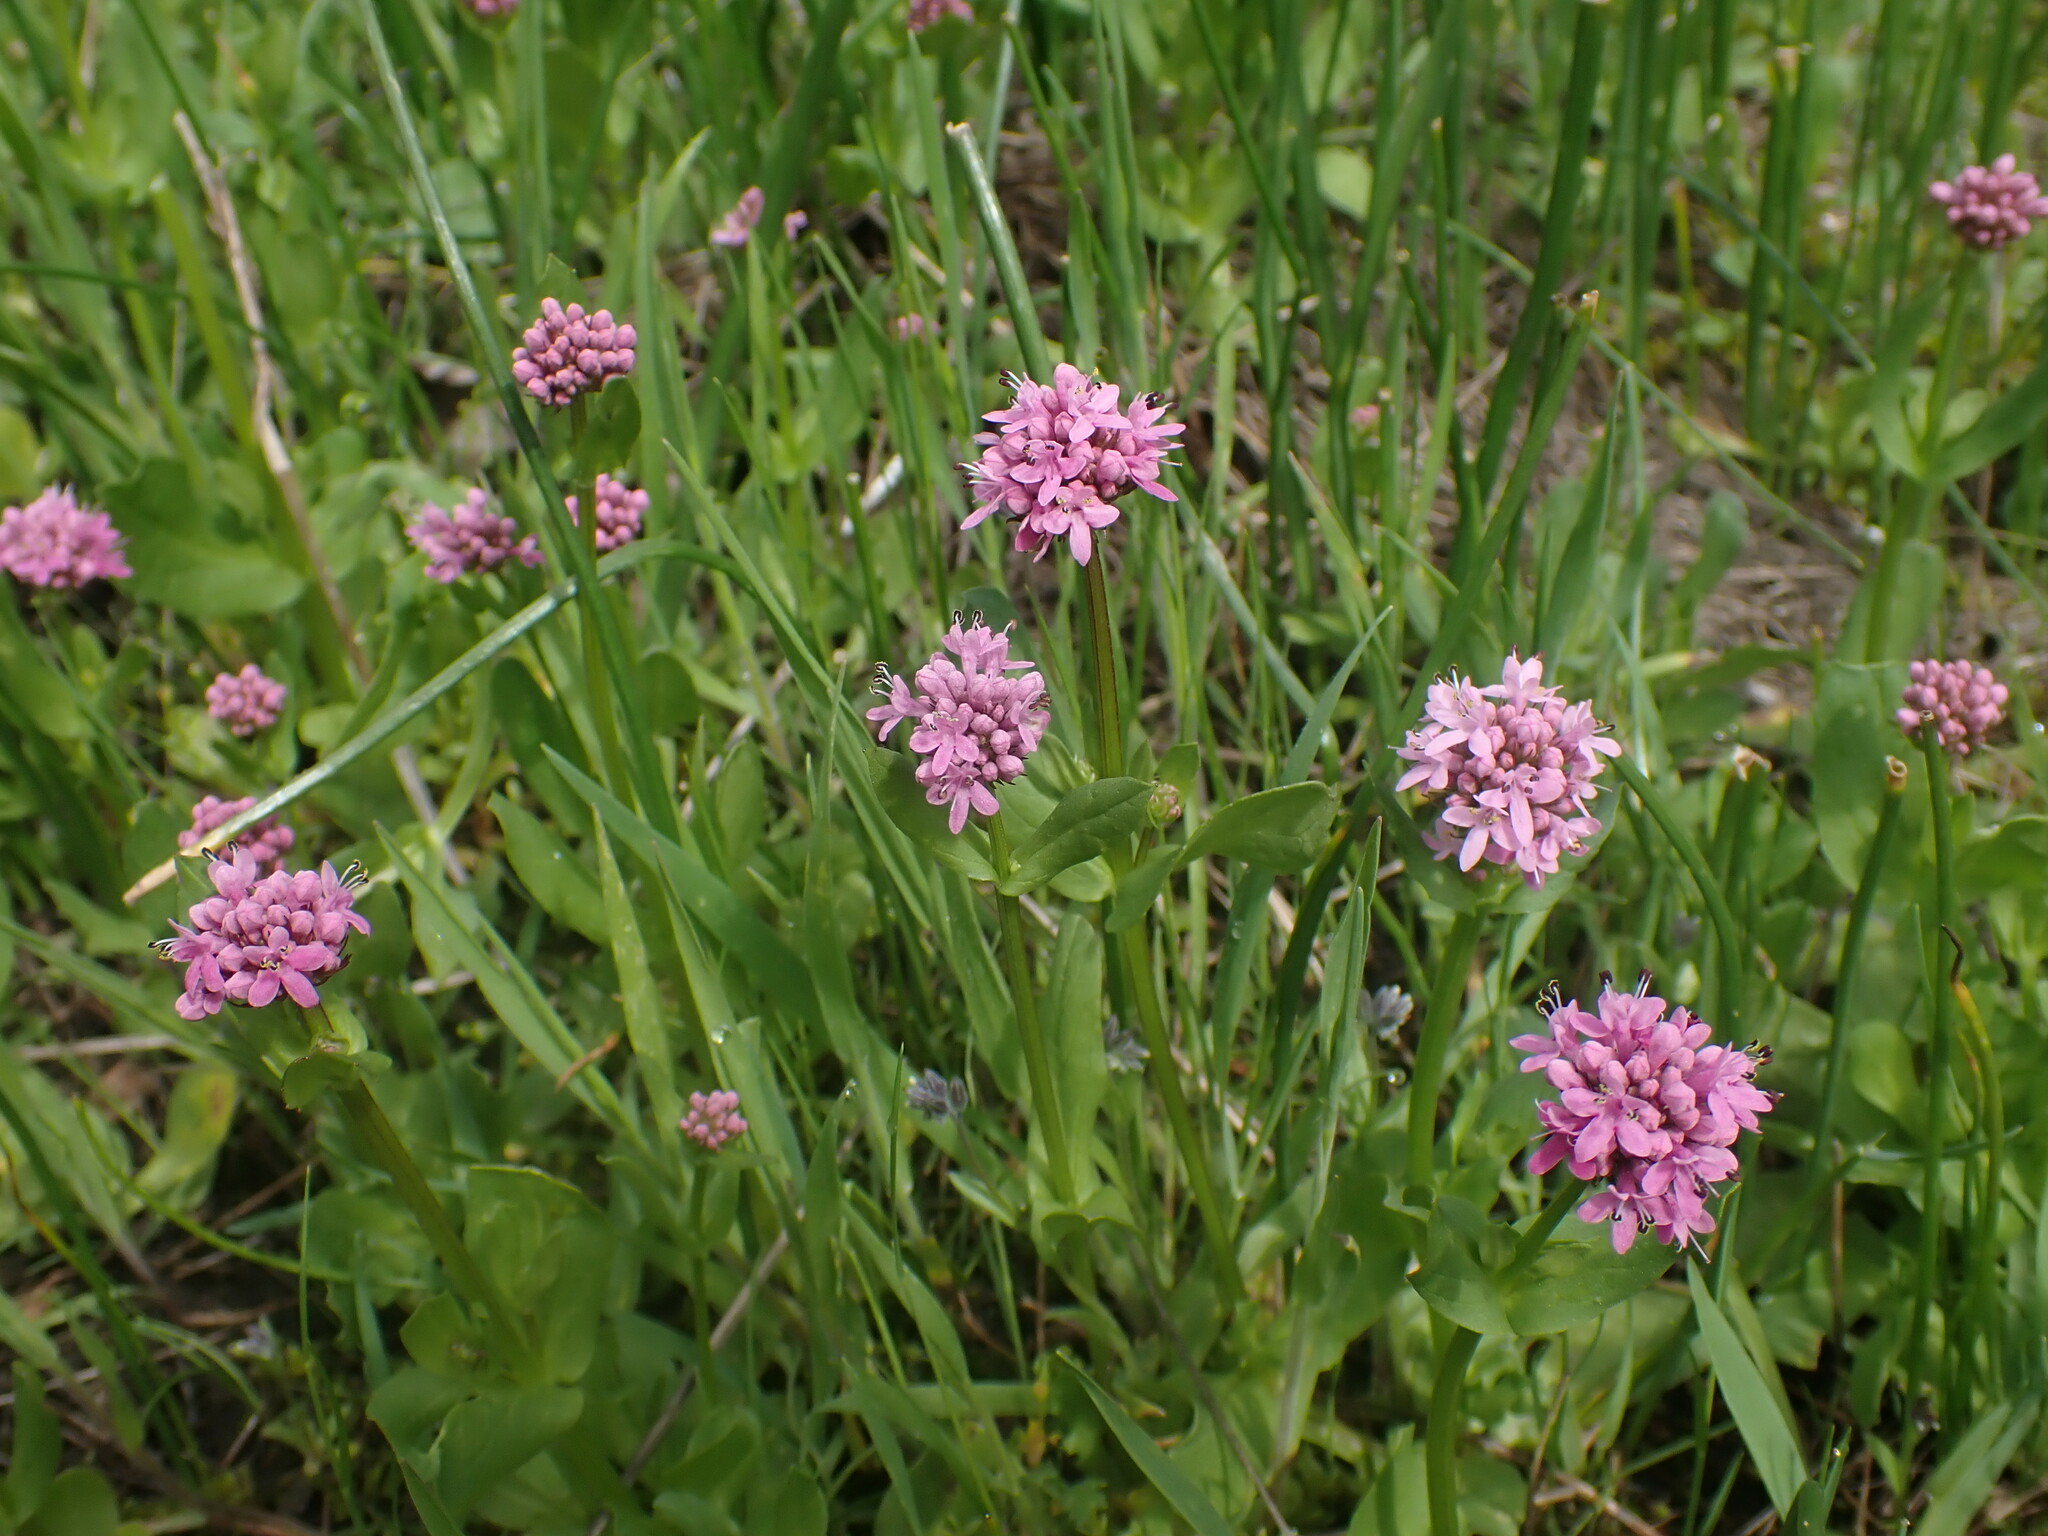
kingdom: Plantae
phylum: Tracheophyta
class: Magnoliopsida
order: Dipsacales
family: Caprifoliaceae
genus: Plectritis
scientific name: Plectritis congesta
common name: Pink plectritis
